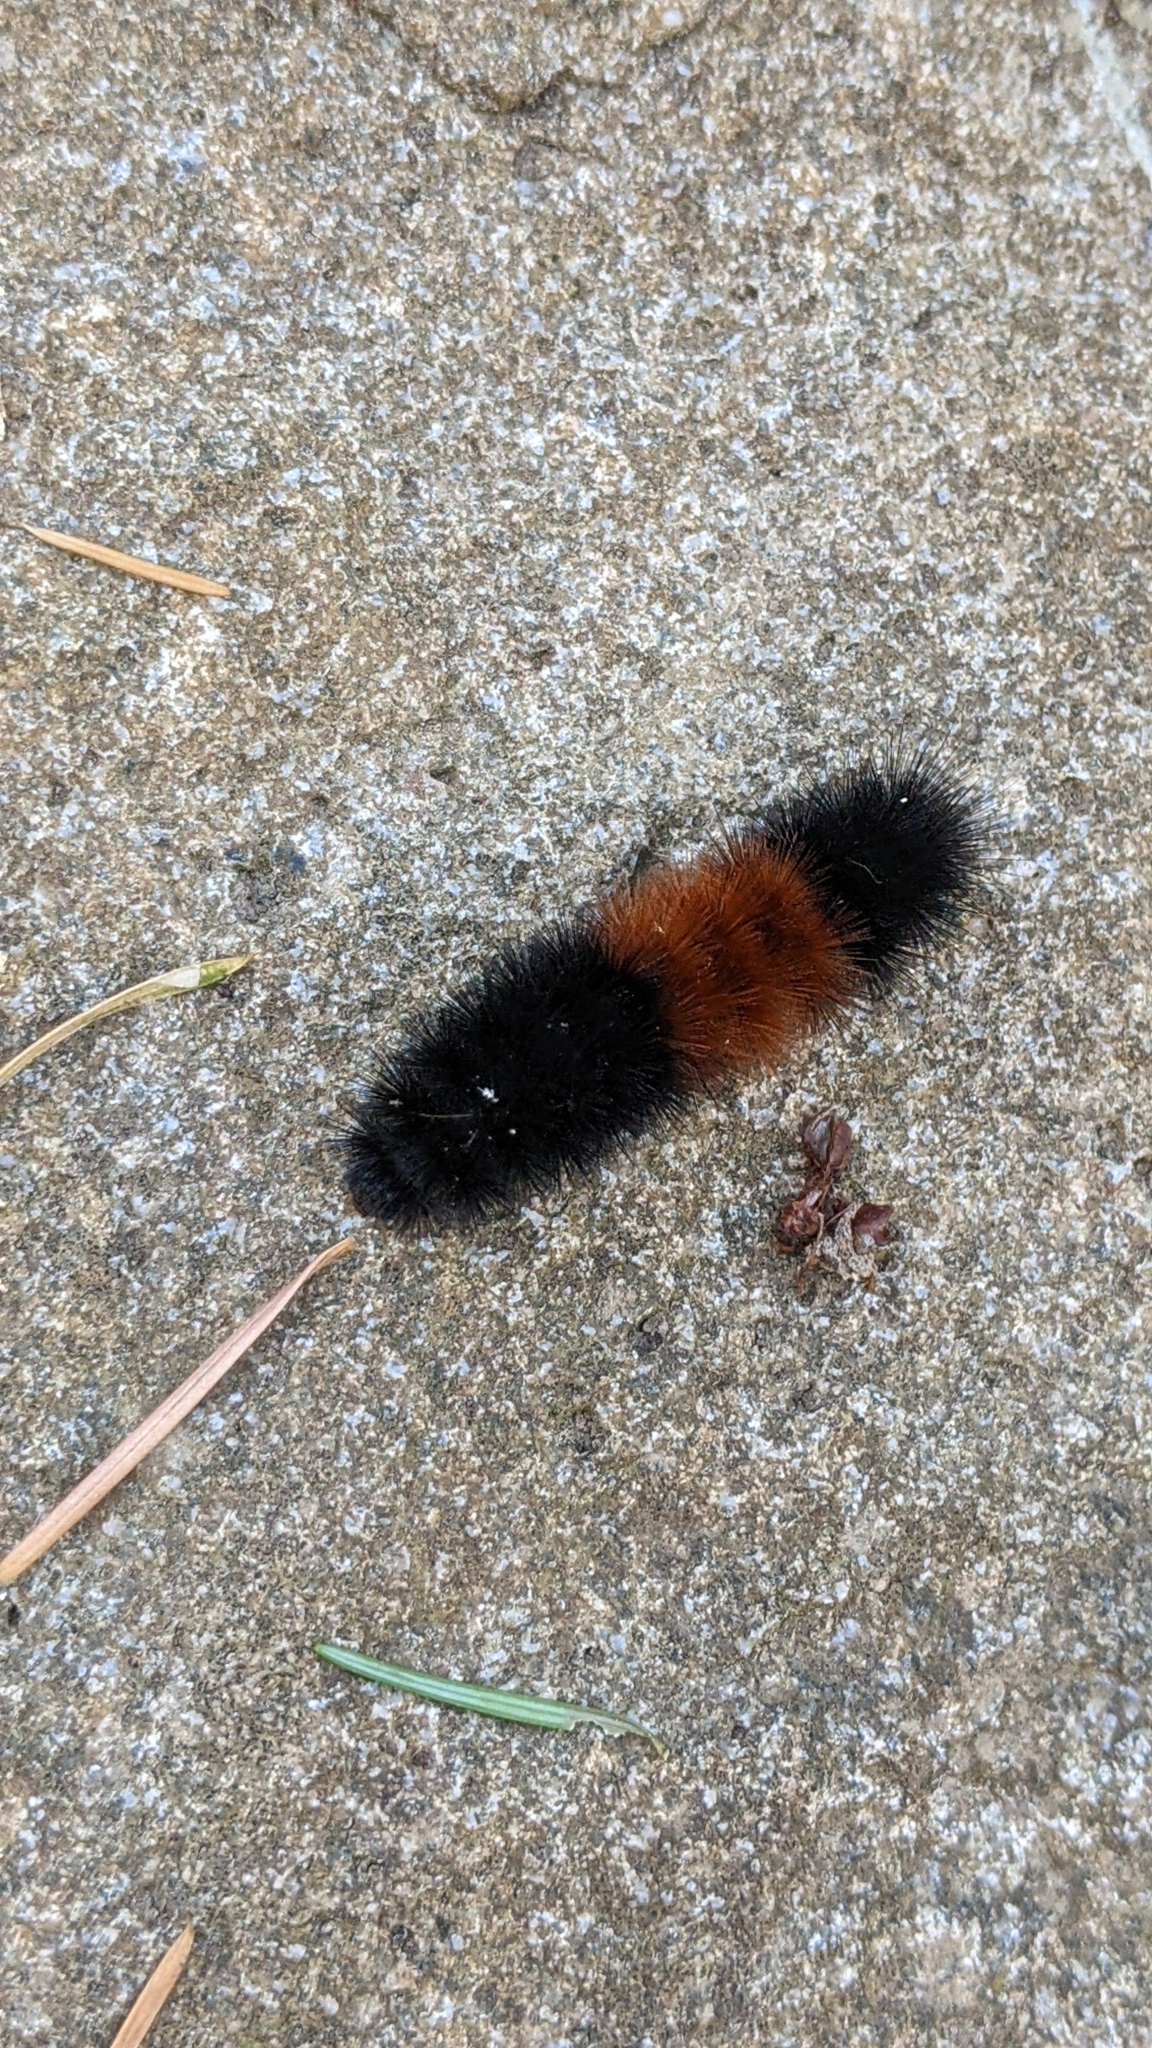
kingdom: Animalia
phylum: Arthropoda
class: Insecta
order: Lepidoptera
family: Erebidae
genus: Pyrrharctia
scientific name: Pyrrharctia isabella
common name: Isabella tiger moth
